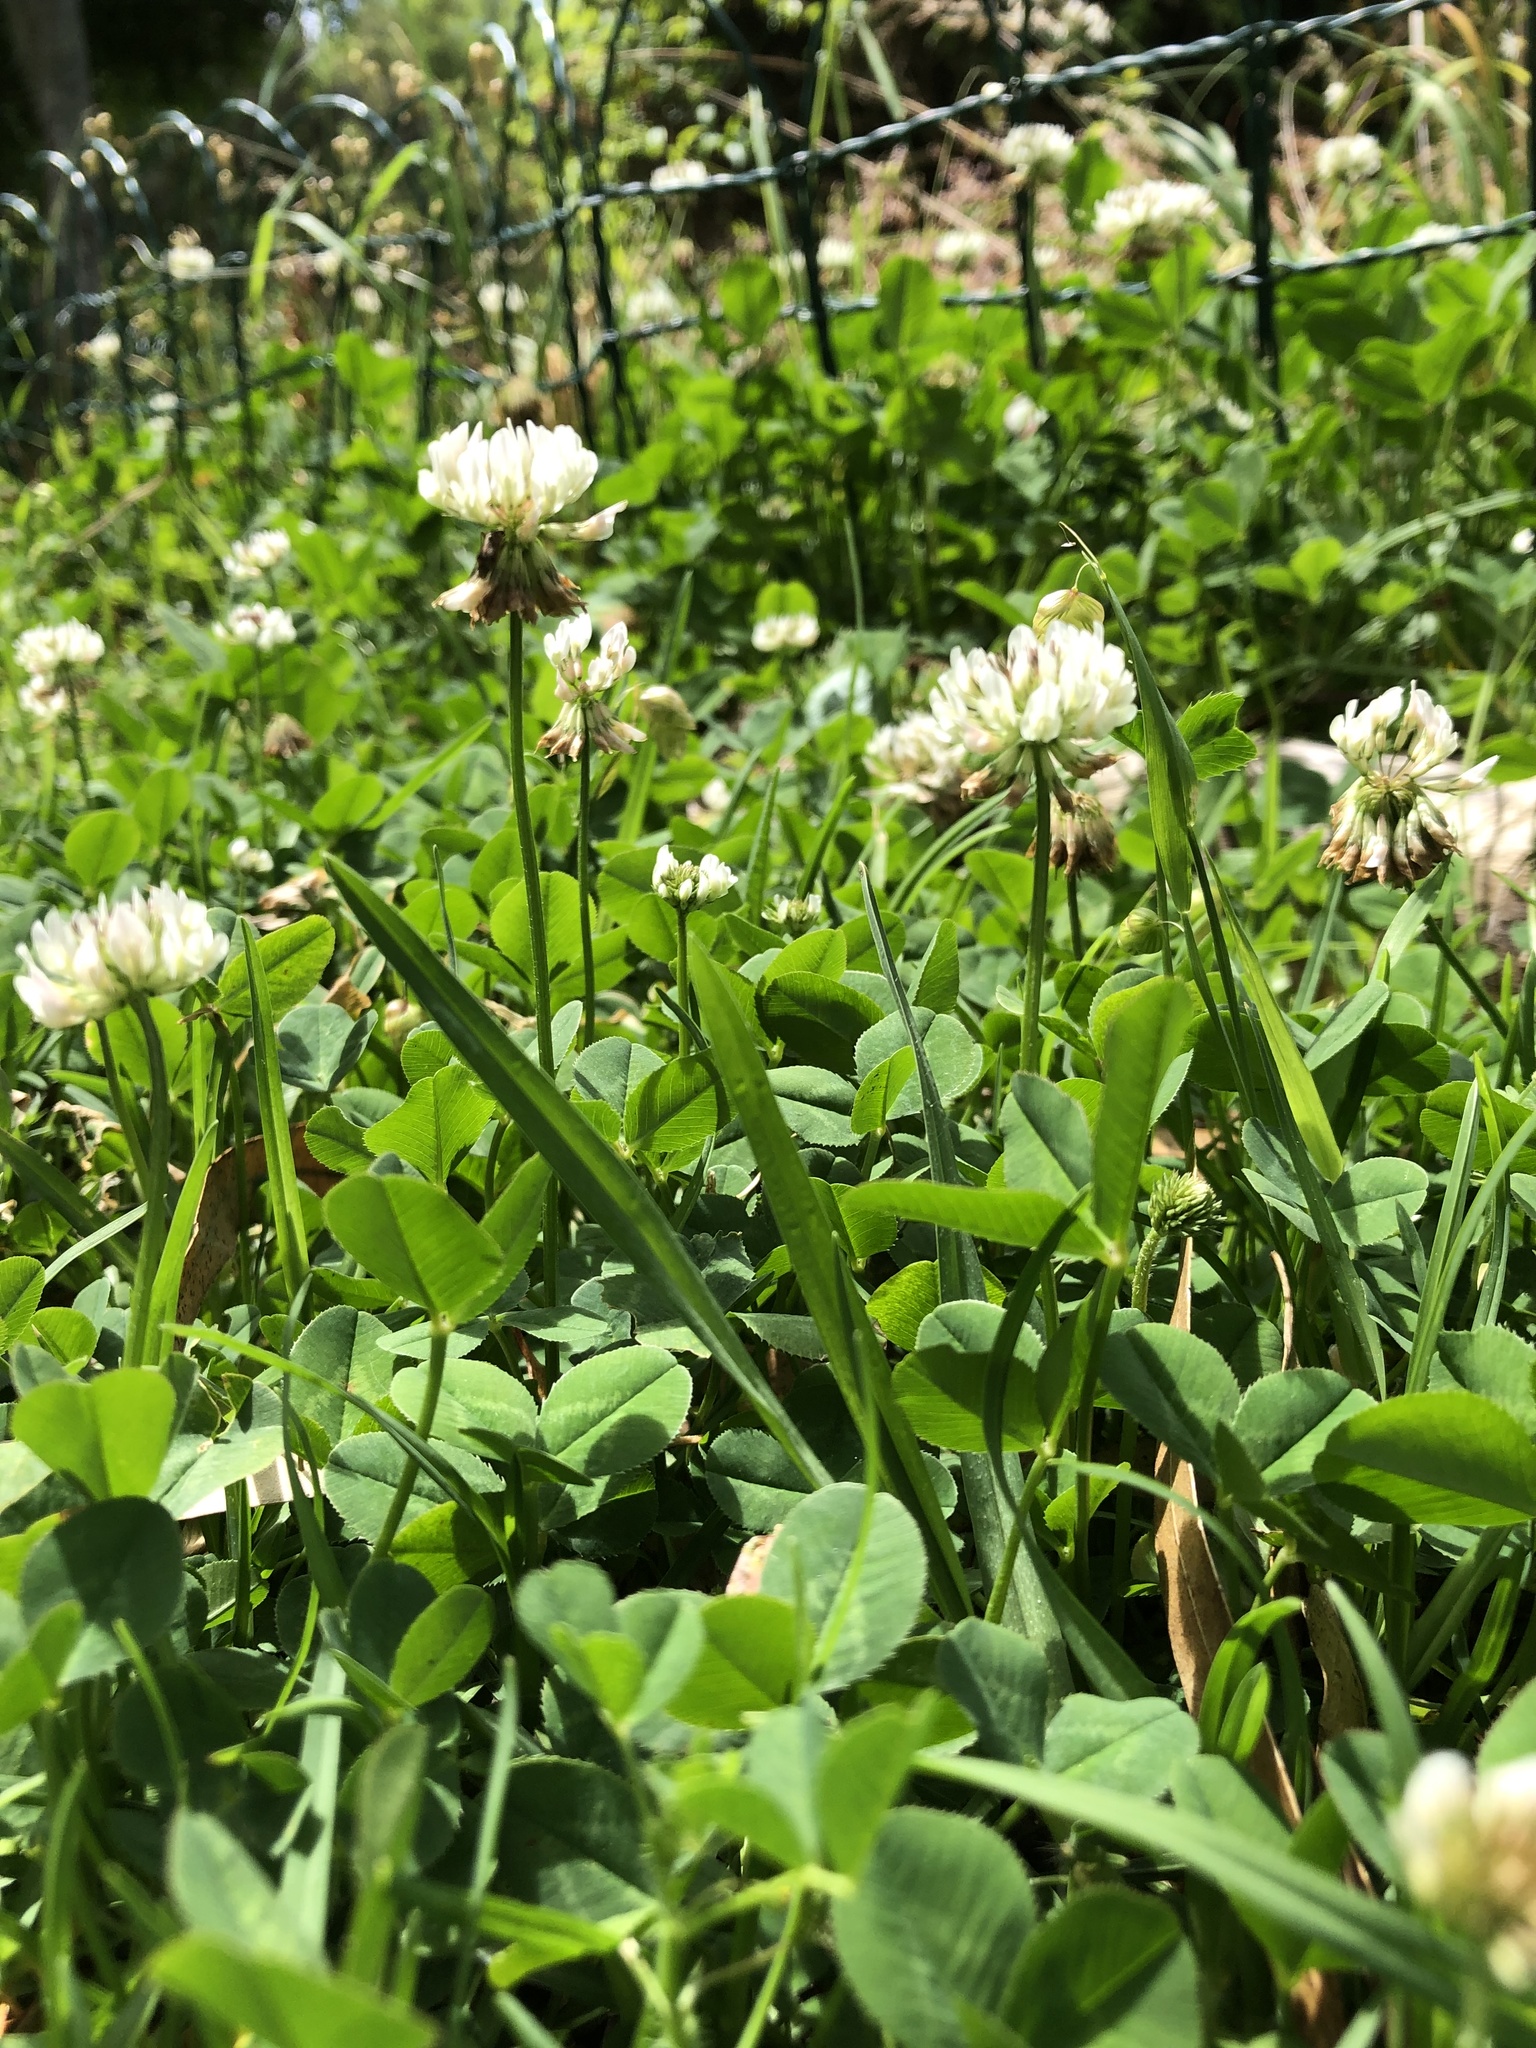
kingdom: Plantae
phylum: Tracheophyta
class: Magnoliopsida
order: Fabales
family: Fabaceae
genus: Trifolium
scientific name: Trifolium repens
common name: White clover
